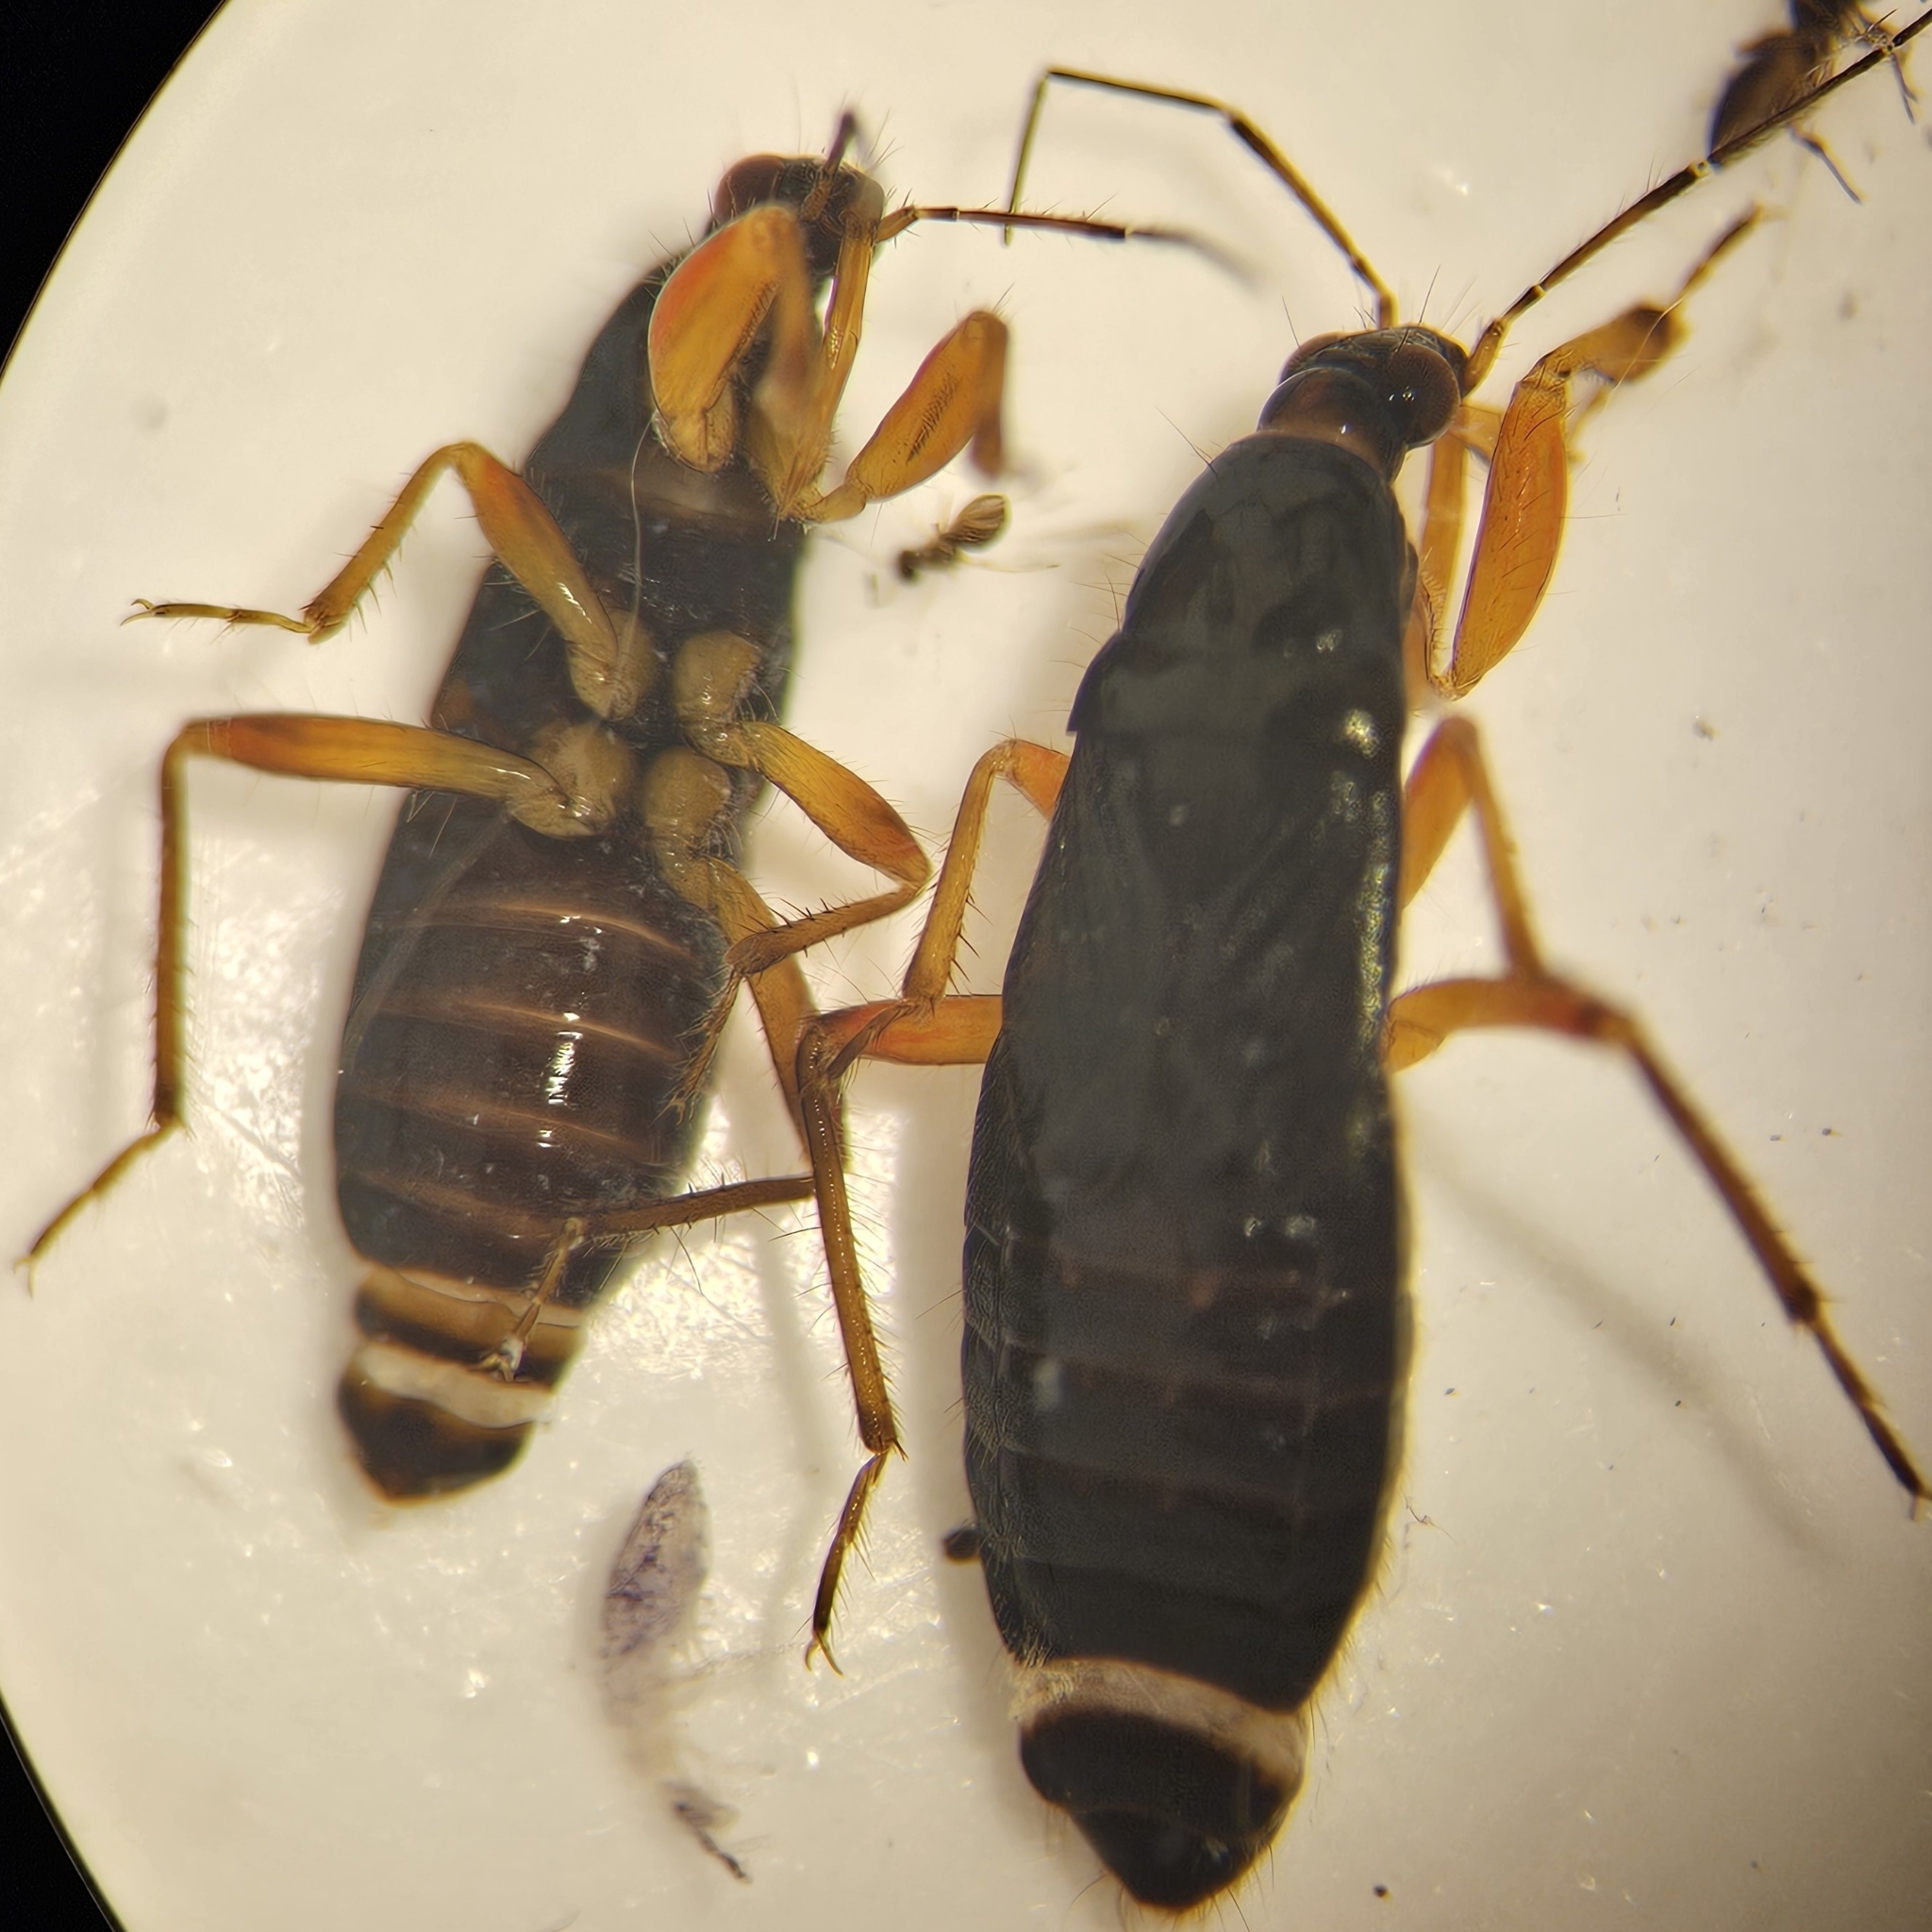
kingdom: Animalia
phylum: Arthropoda
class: Insecta
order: Hemiptera
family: Nabidae
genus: Pagasa
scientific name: Pagasa fusca
